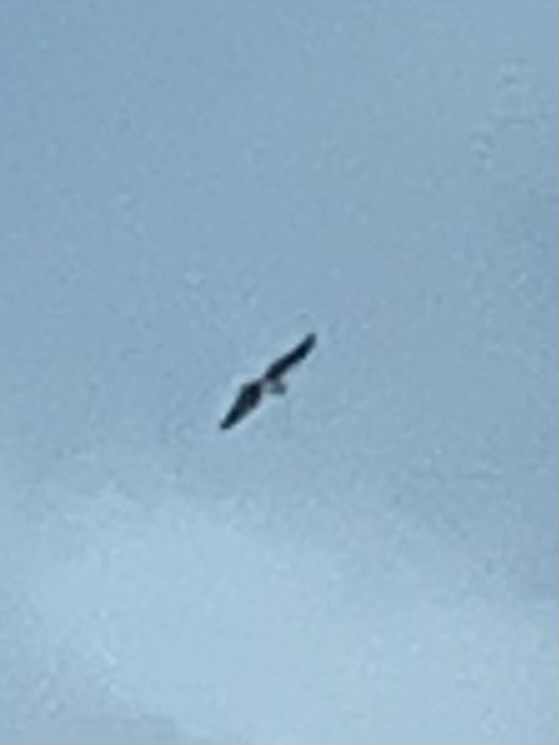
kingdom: Animalia
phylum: Chordata
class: Aves
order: Accipitriformes
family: Pandionidae
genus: Pandion
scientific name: Pandion haliaetus
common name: Osprey
